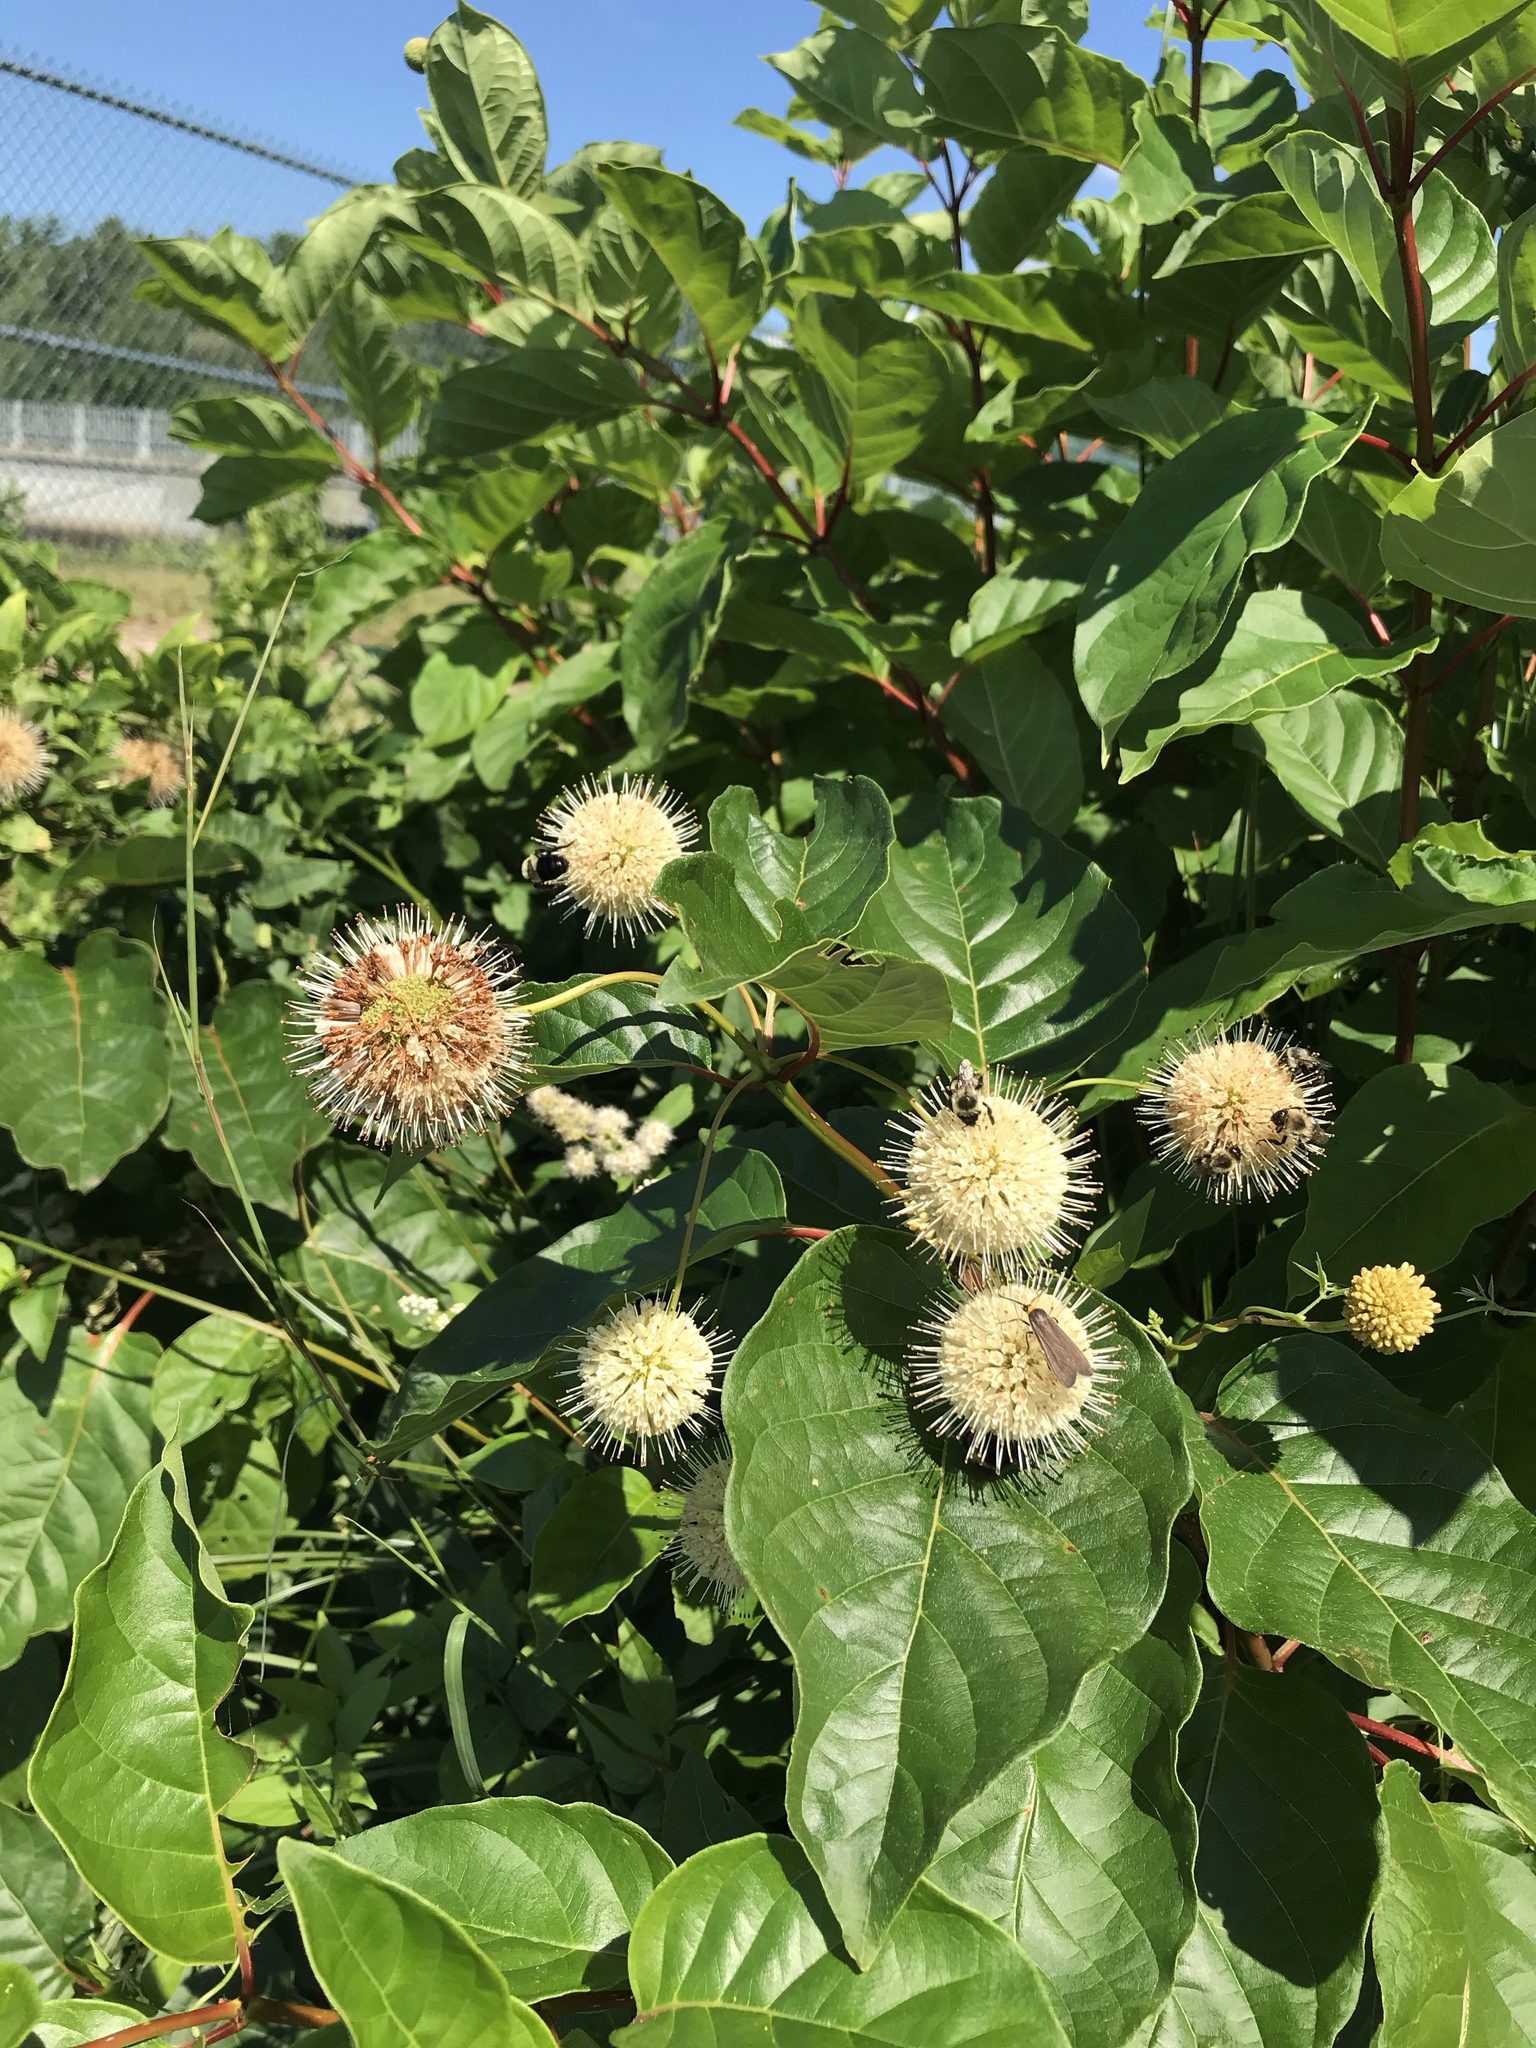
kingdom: Plantae
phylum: Tracheophyta
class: Magnoliopsida
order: Gentianales
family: Rubiaceae
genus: Cephalanthus
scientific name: Cephalanthus occidentalis
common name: Button-willow
